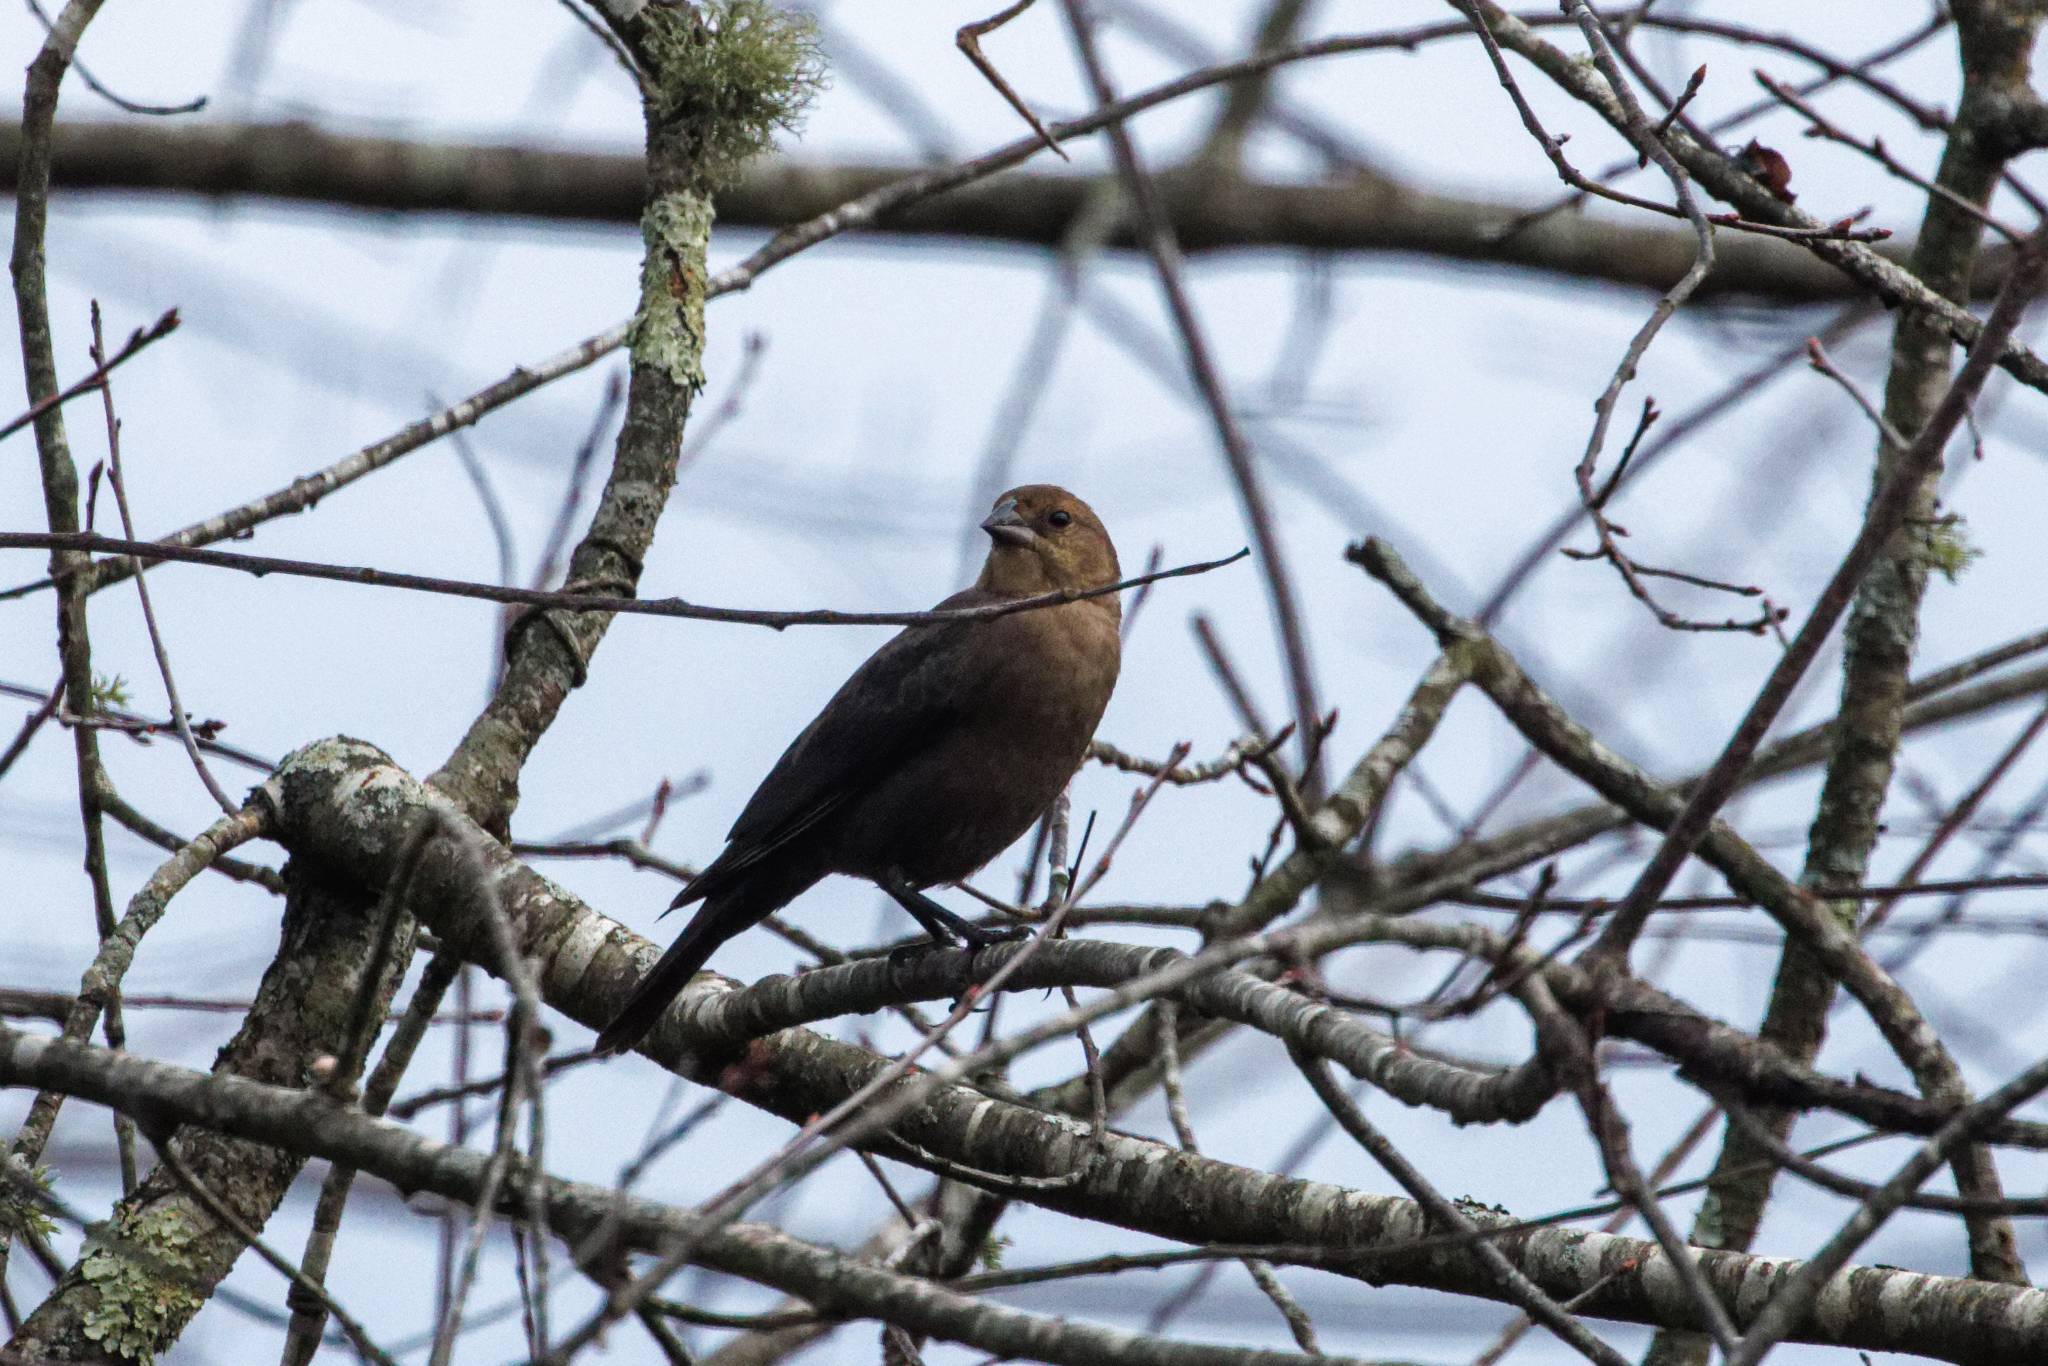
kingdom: Animalia
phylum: Chordata
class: Aves
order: Passeriformes
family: Icteridae
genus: Molothrus
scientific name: Molothrus ater
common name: Brown-headed cowbird
